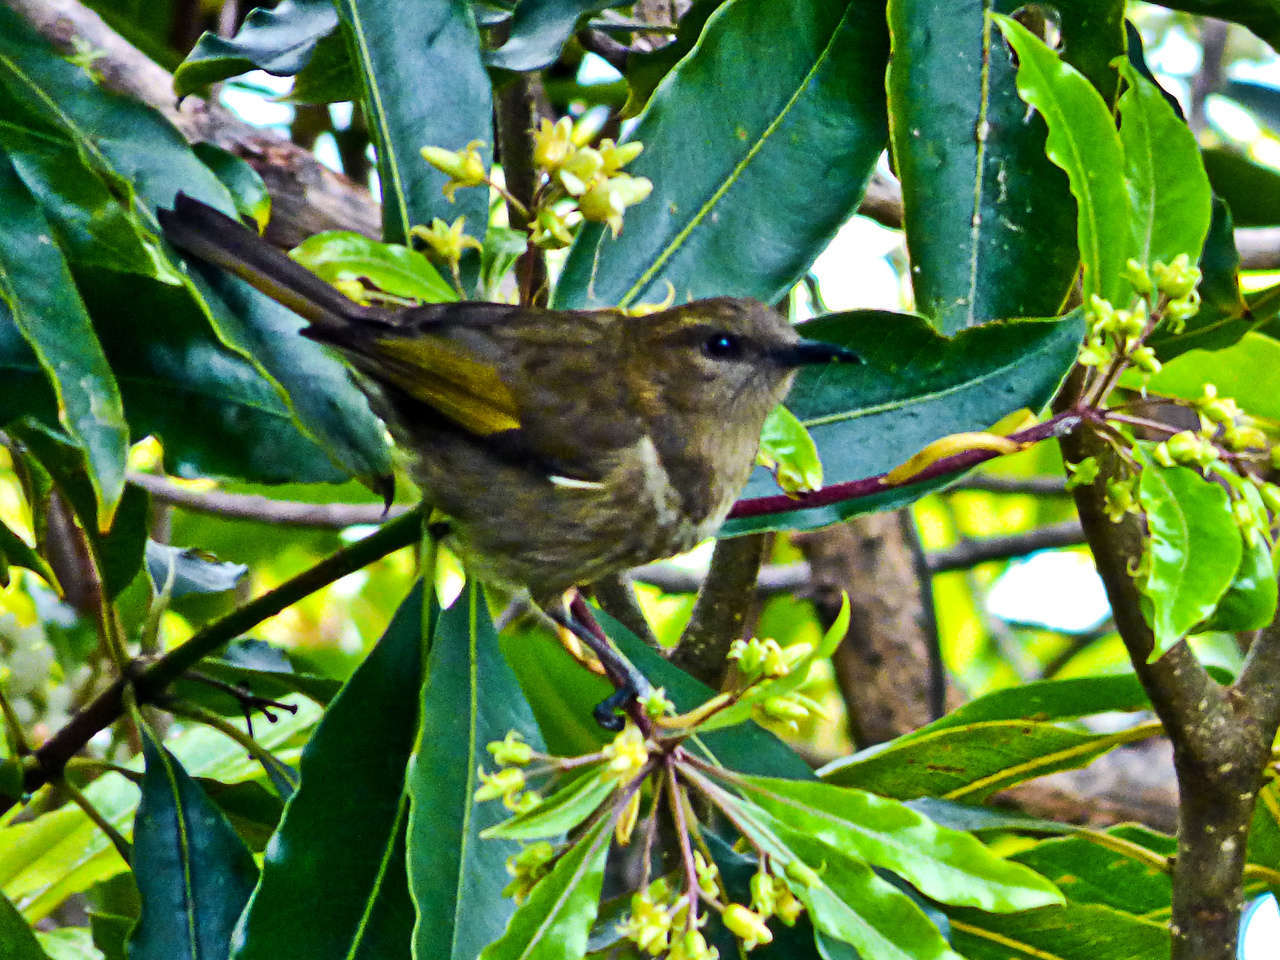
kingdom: Animalia
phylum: Chordata
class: Aves
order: Passeriformes
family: Meliphagidae
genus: Phylidonyris
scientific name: Phylidonyris pyrrhopterus
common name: Crescent honeyeater
